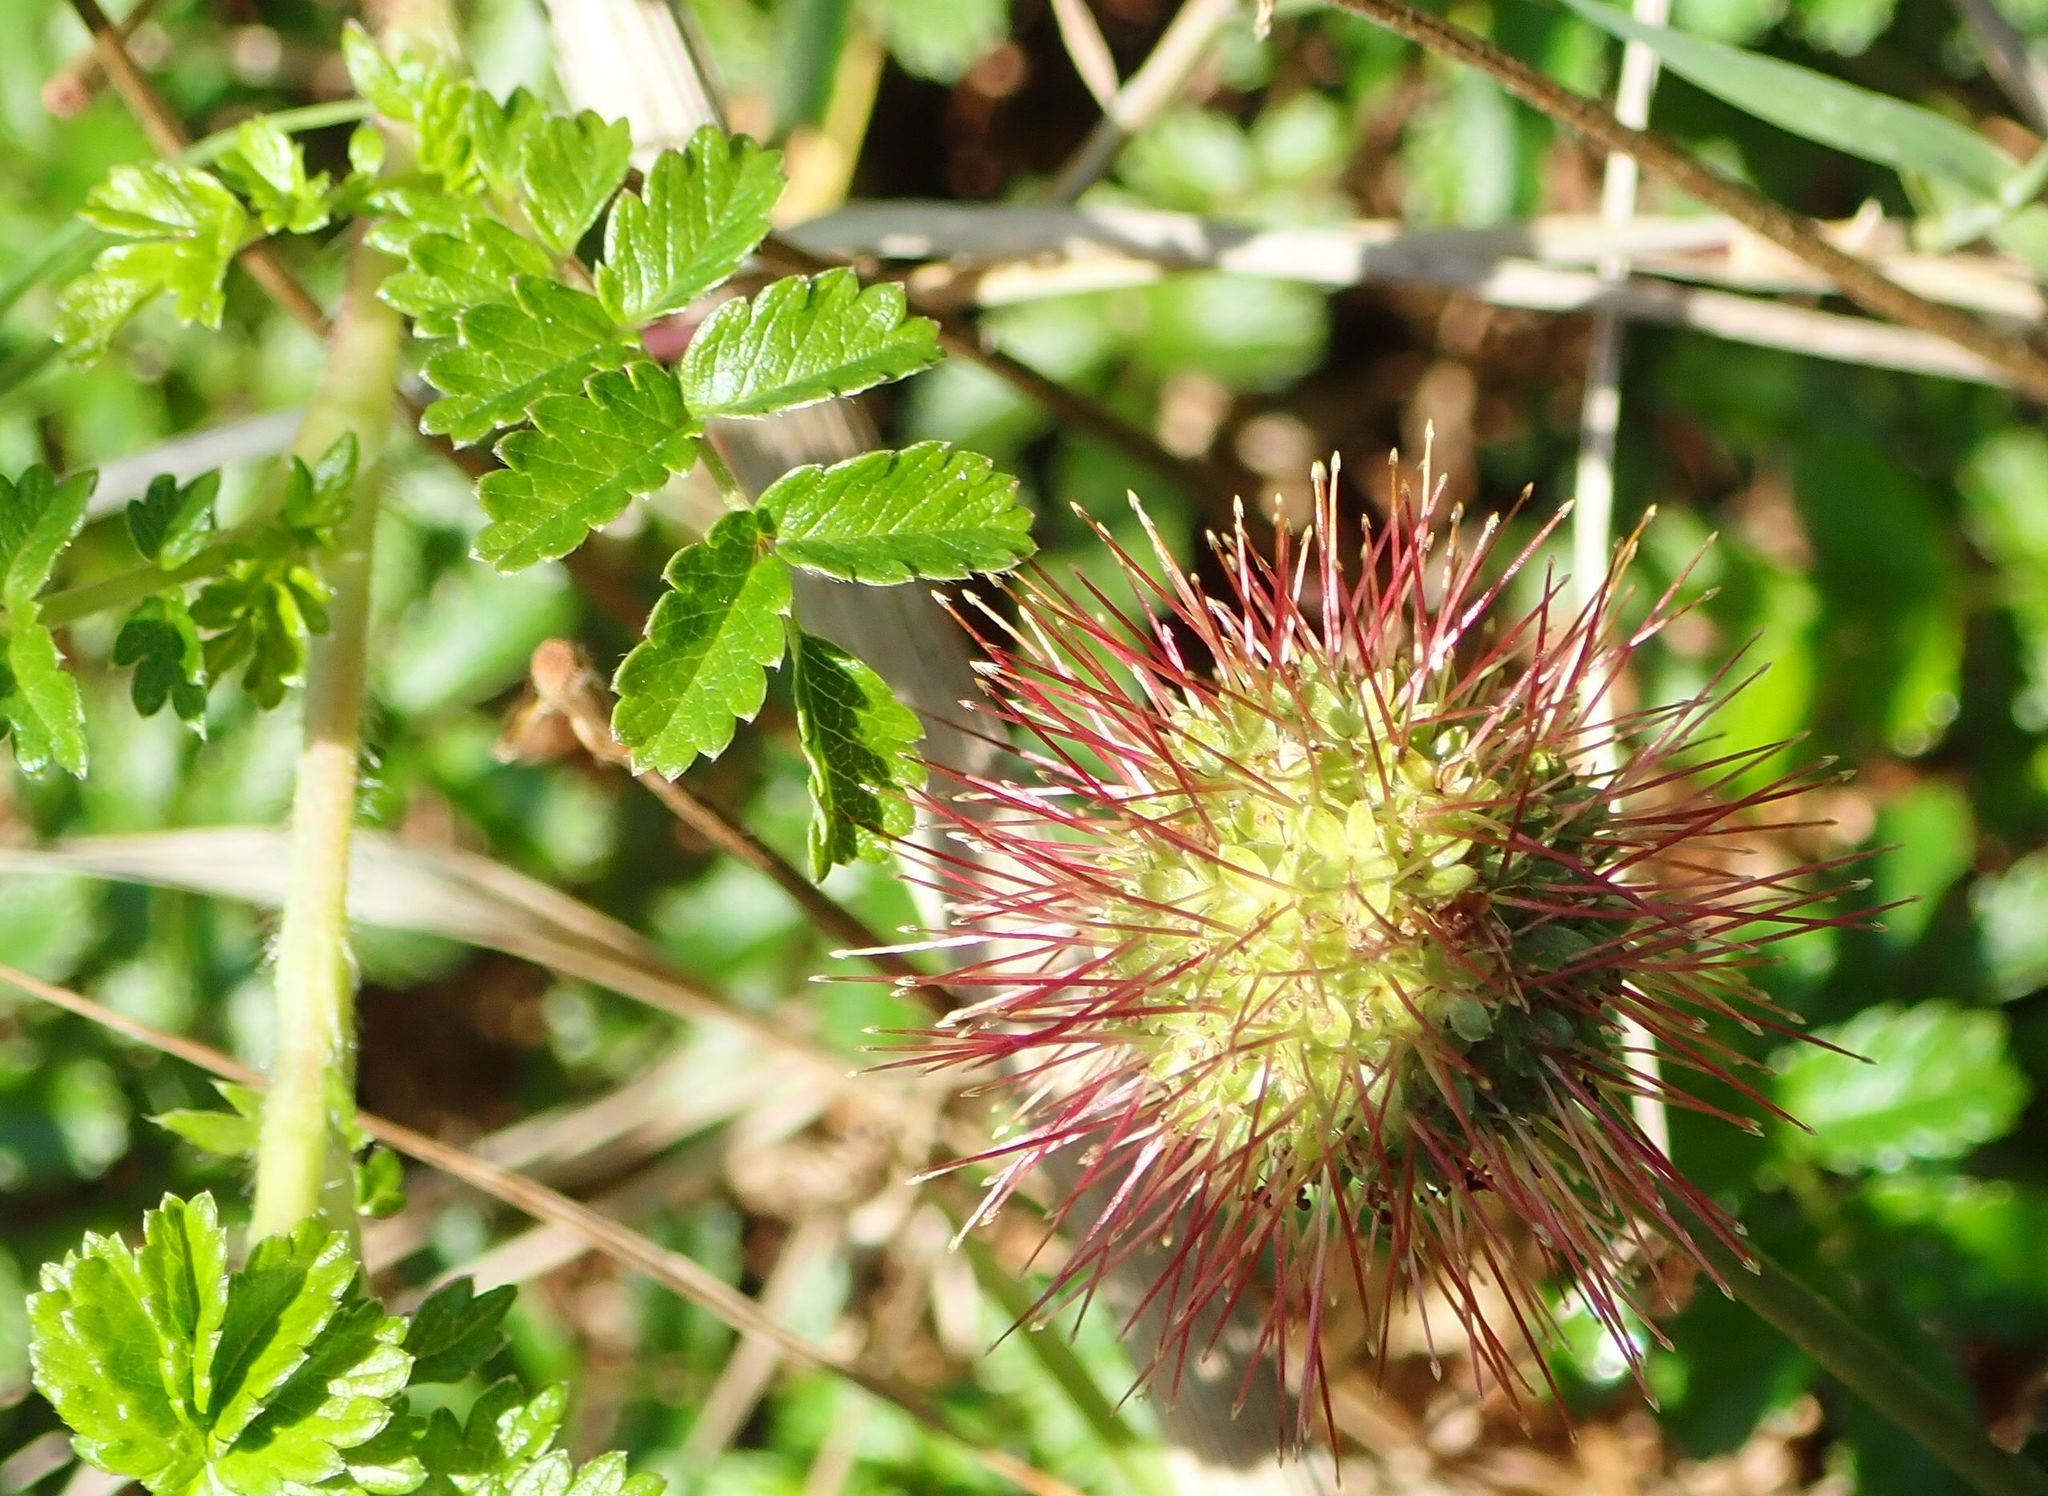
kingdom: Plantae
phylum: Tracheophyta
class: Magnoliopsida
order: Rosales
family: Rosaceae
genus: Acaena
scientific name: Acaena novae-zelandiae
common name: Pirri-pirri-bur
